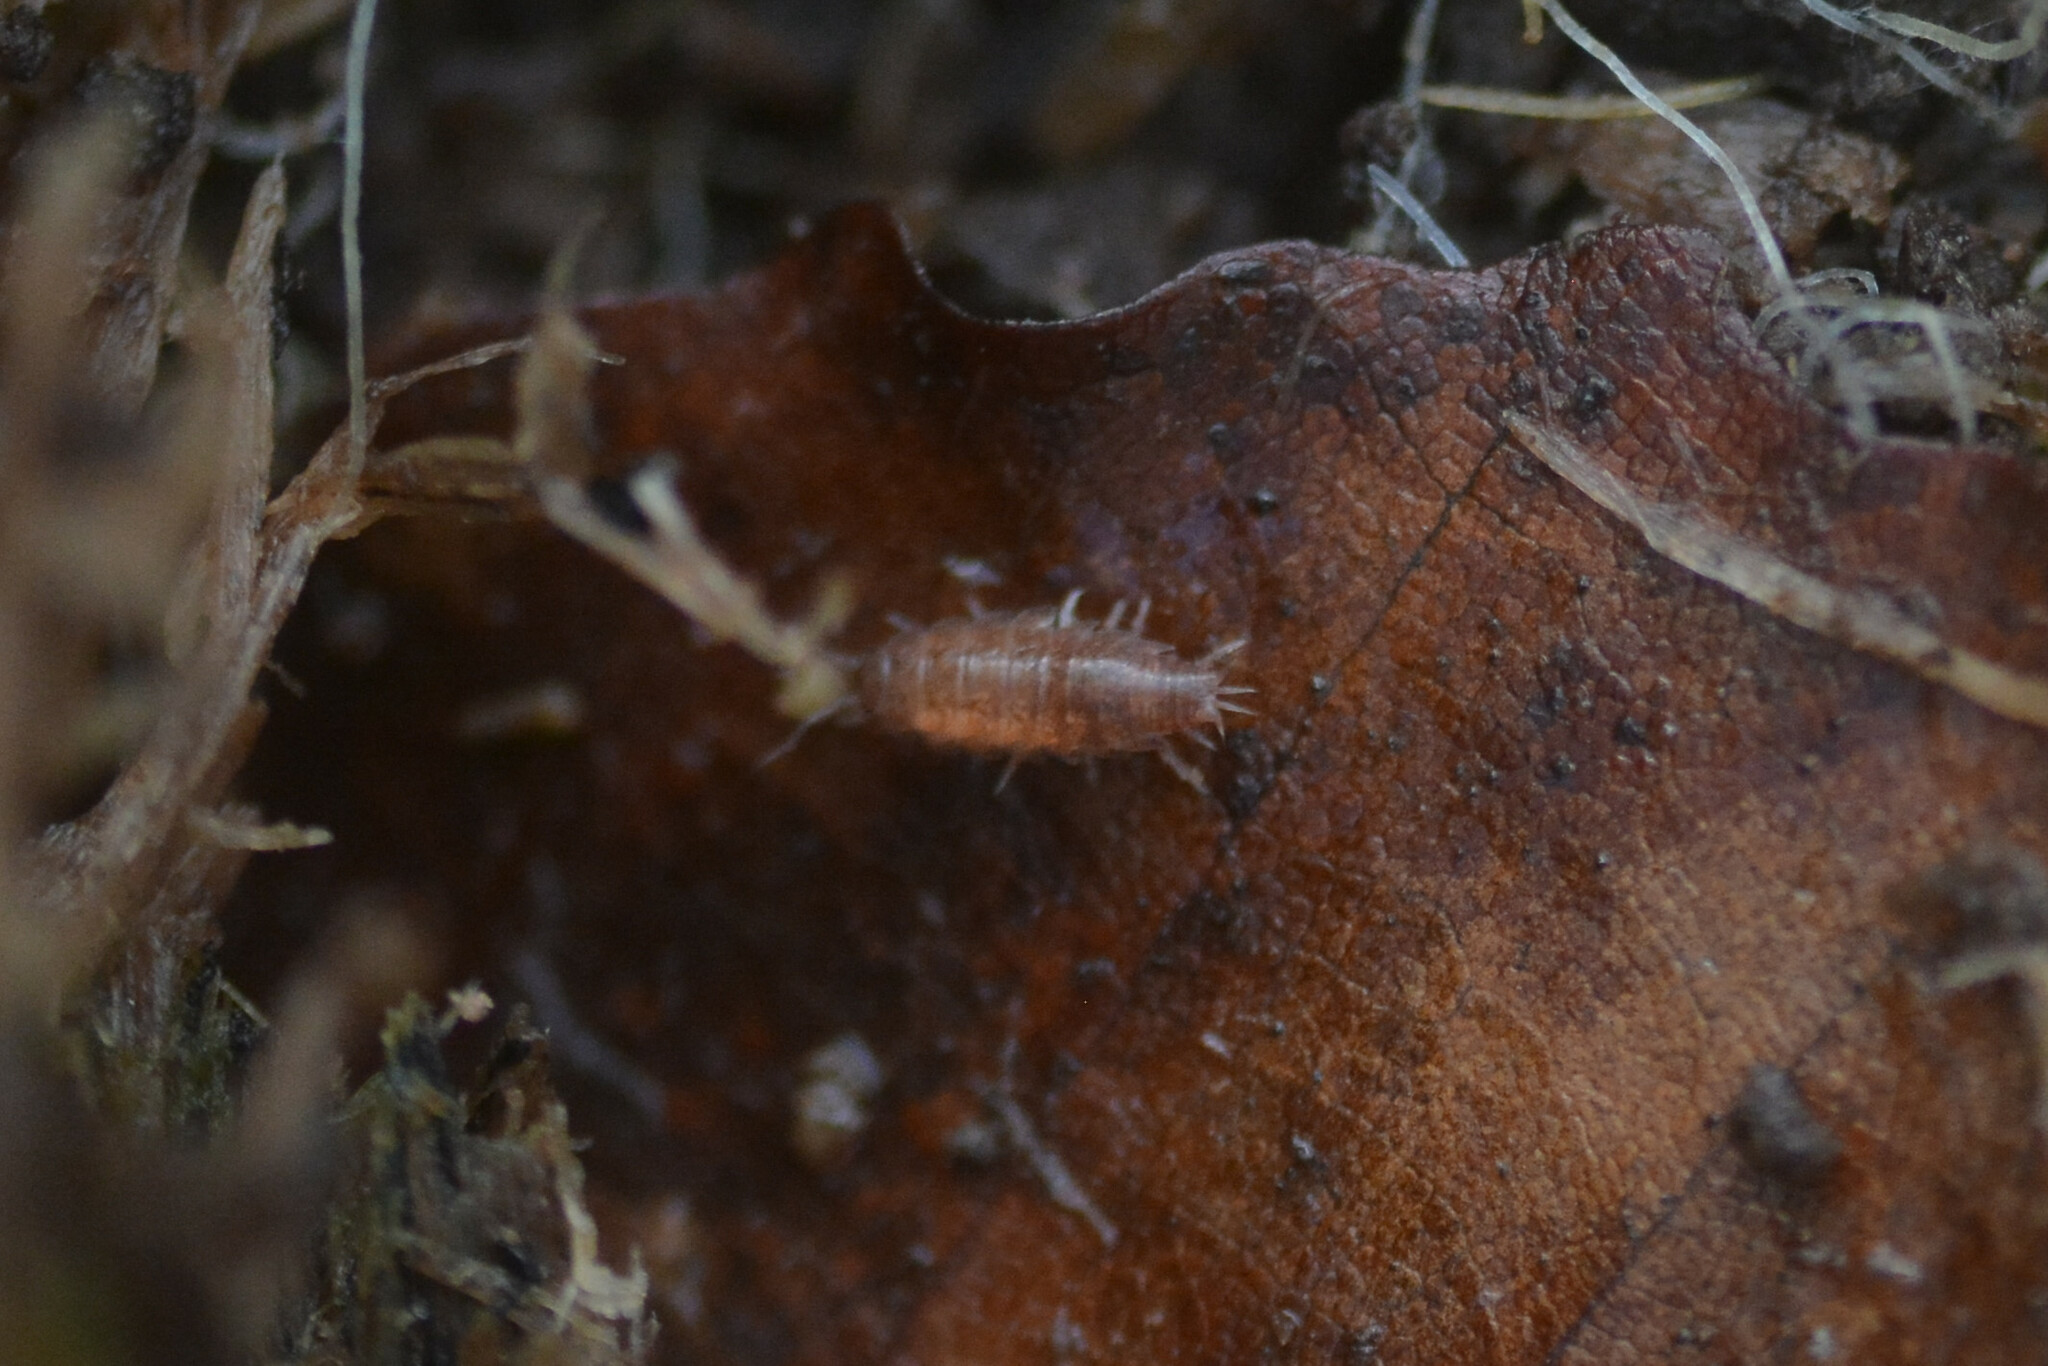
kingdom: Animalia
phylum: Arthropoda
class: Malacostraca
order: Isopoda
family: Trichoniscidae
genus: Trichoniscus
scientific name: Trichoniscus
